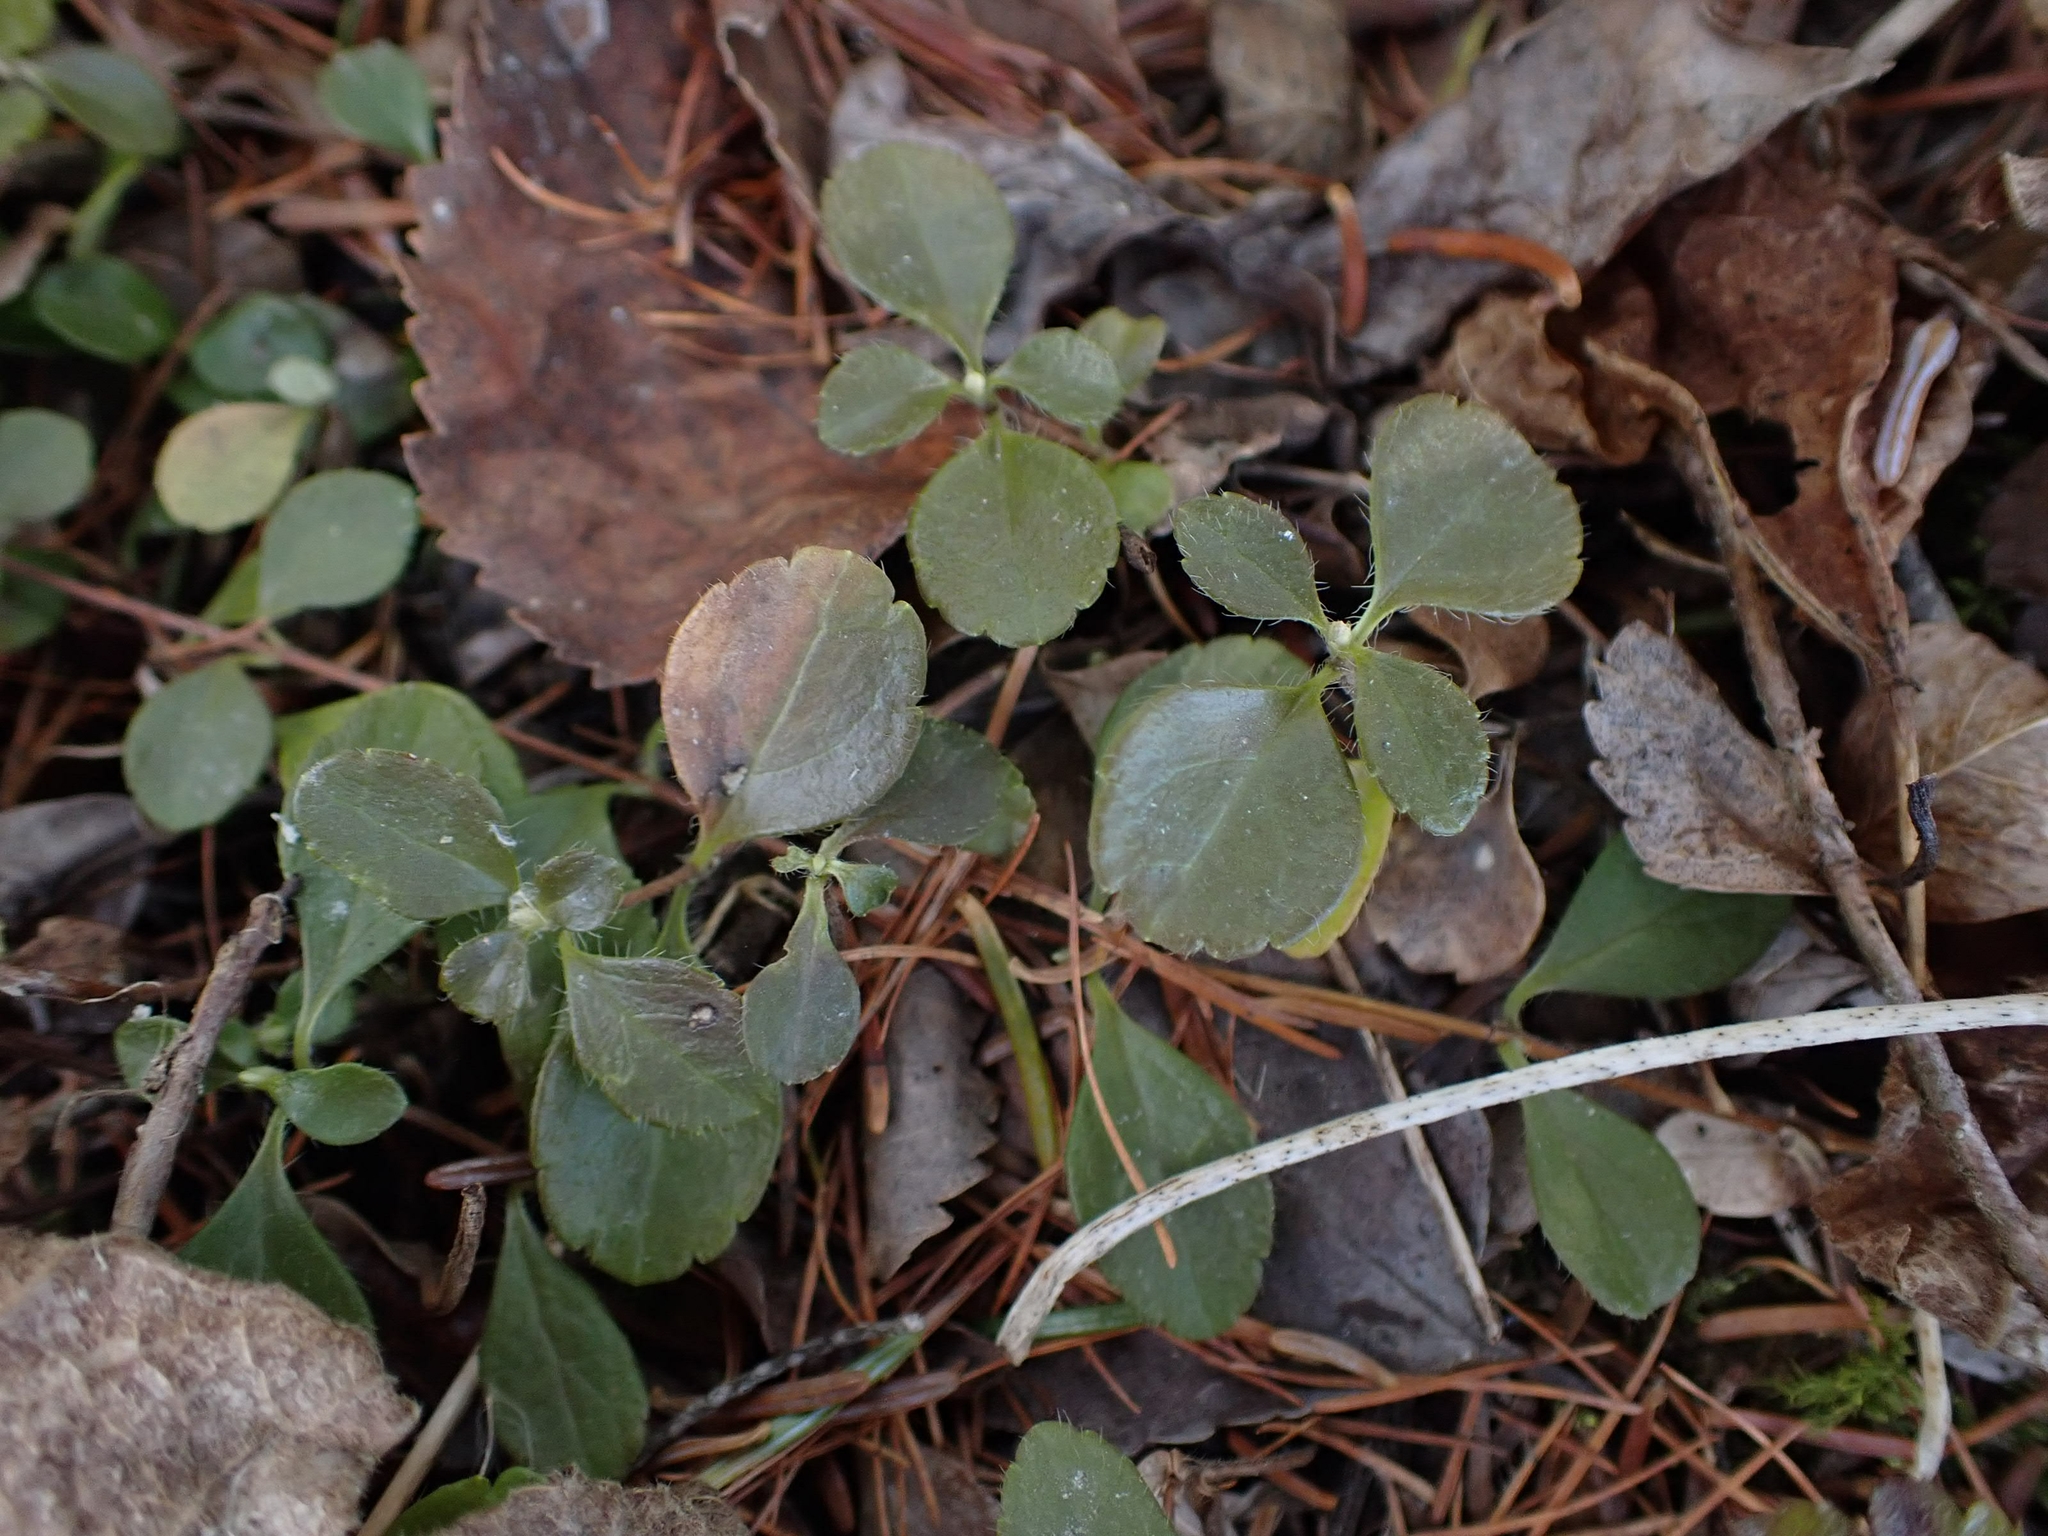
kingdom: Plantae
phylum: Tracheophyta
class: Magnoliopsida
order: Dipsacales
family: Caprifoliaceae
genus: Linnaea
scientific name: Linnaea borealis
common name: Twinflower
